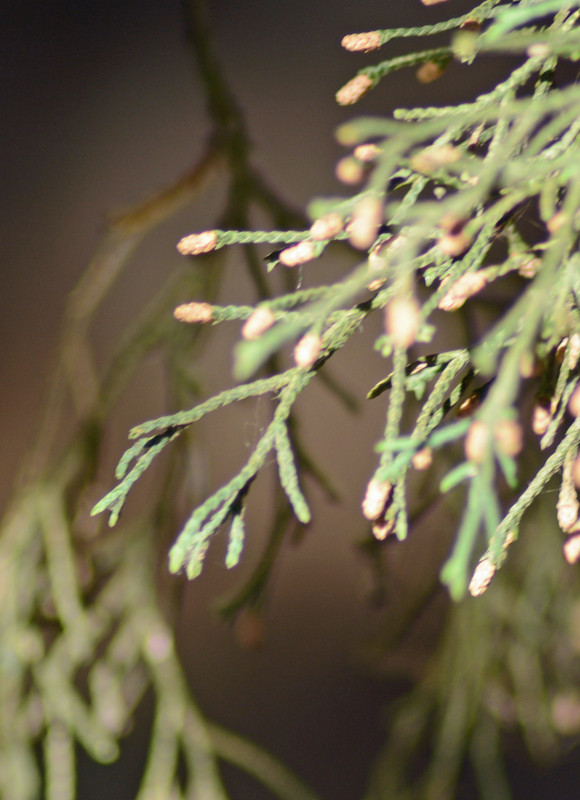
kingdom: Plantae
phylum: Tracheophyta
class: Pinopsida
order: Pinales
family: Cupressaceae
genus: Cupressus
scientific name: Cupressus lusitanica
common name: Mexican cypress
